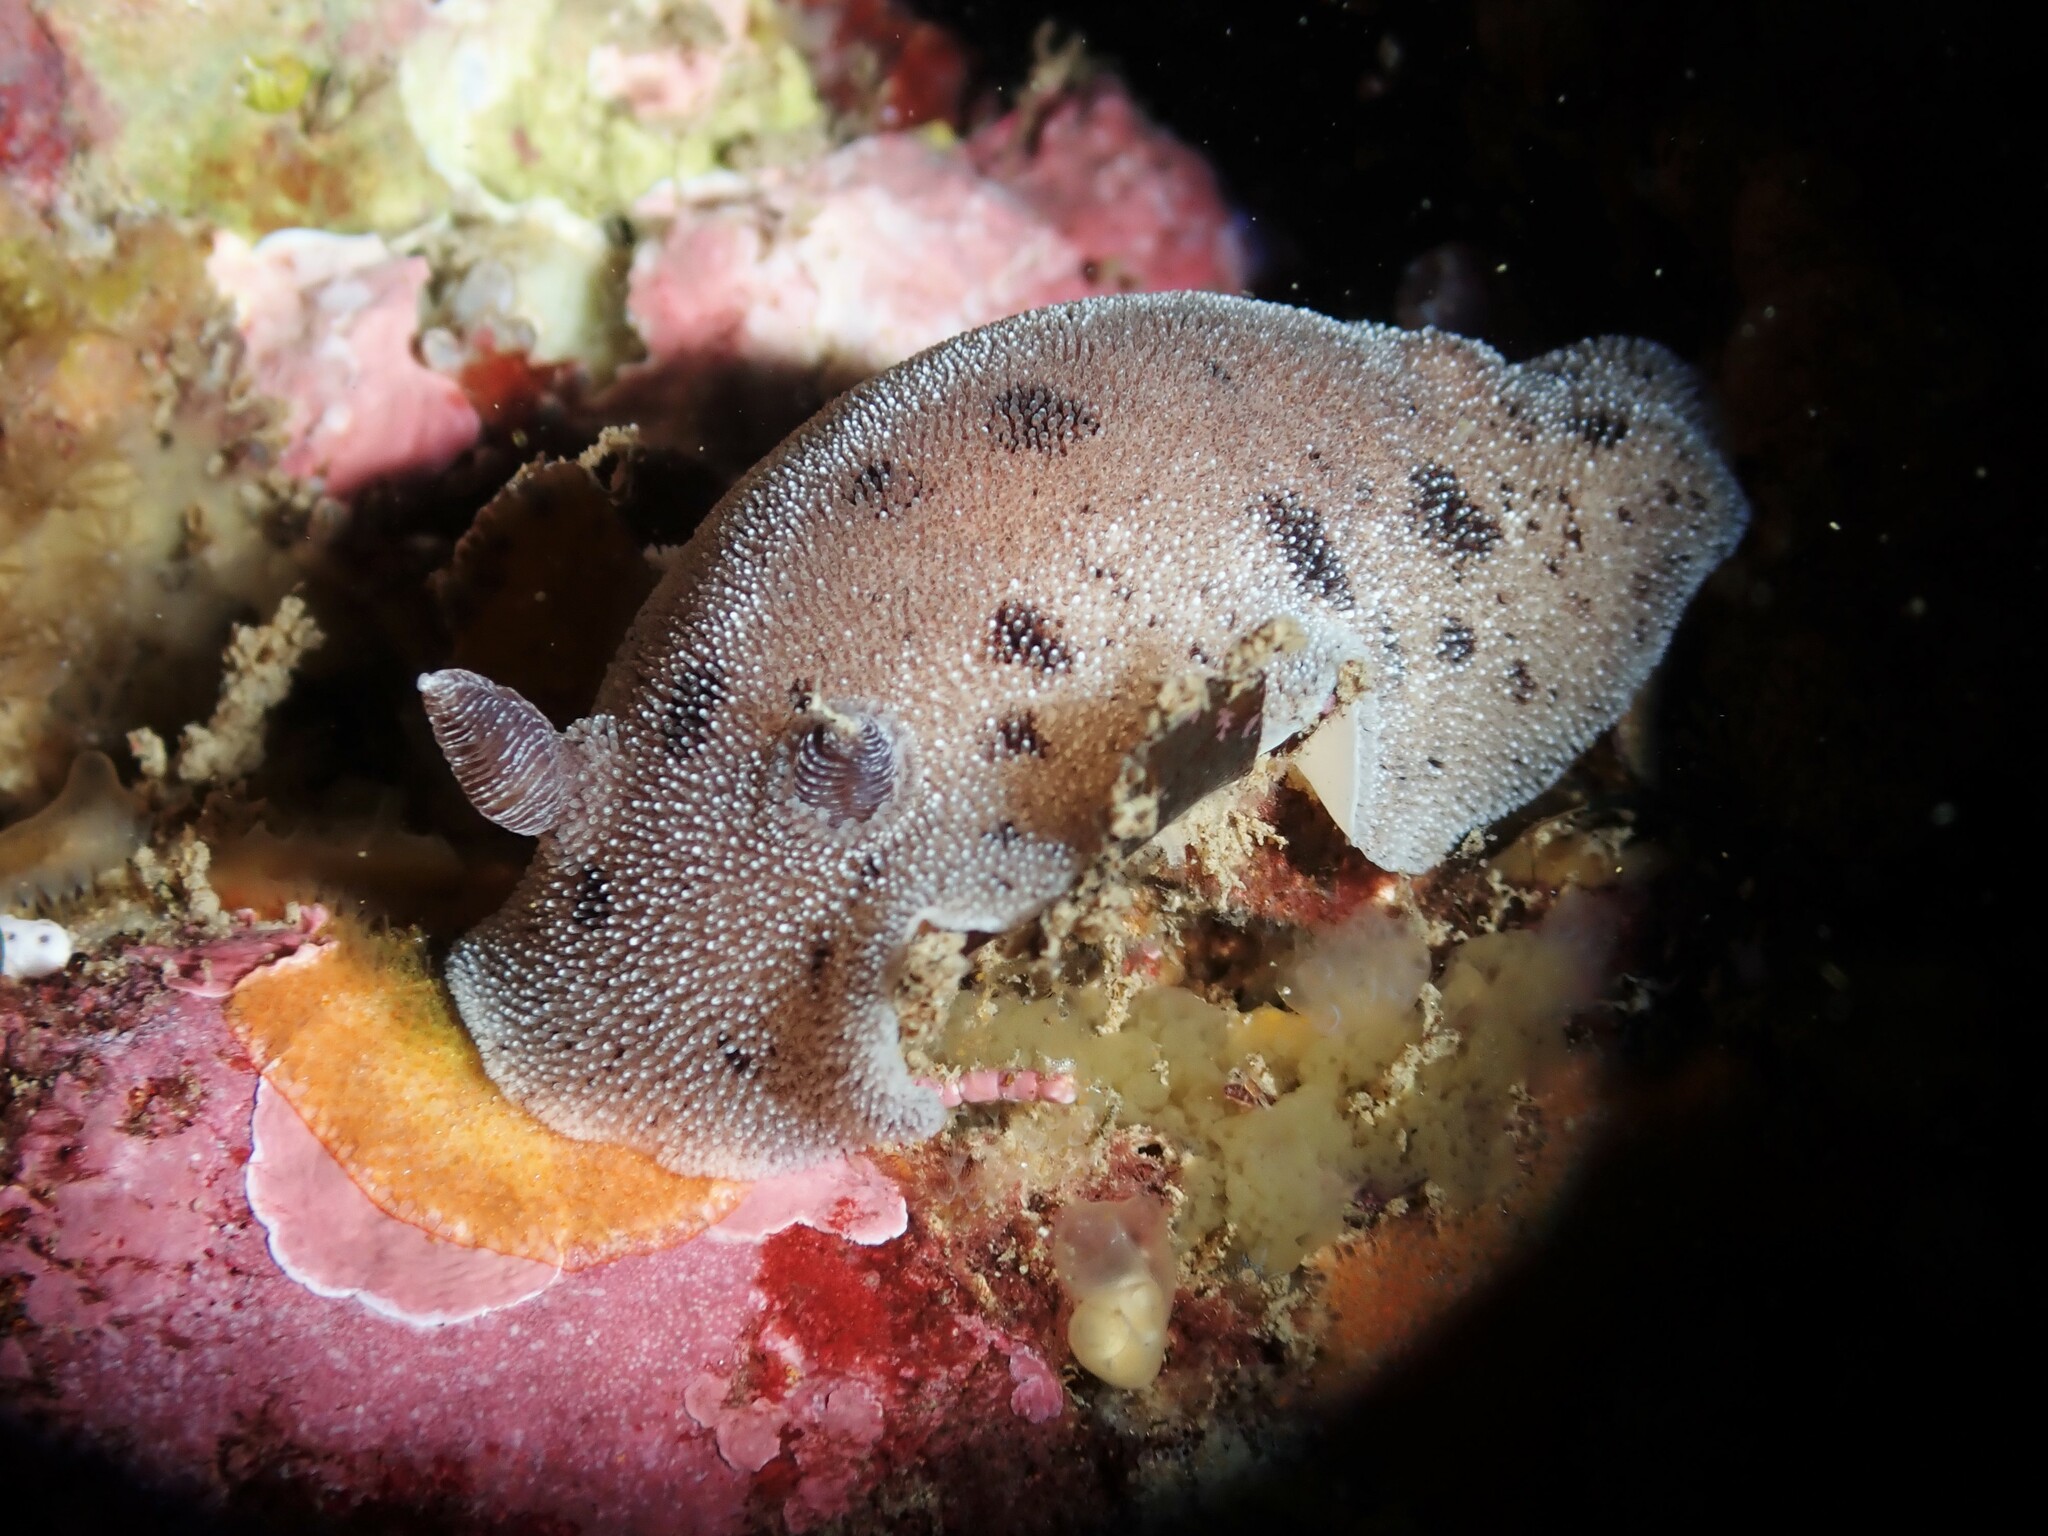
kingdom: Animalia
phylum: Mollusca
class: Gastropoda
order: Nudibranchia
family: Discodorididae
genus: Alloiodoris
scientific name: Alloiodoris lanuginata
